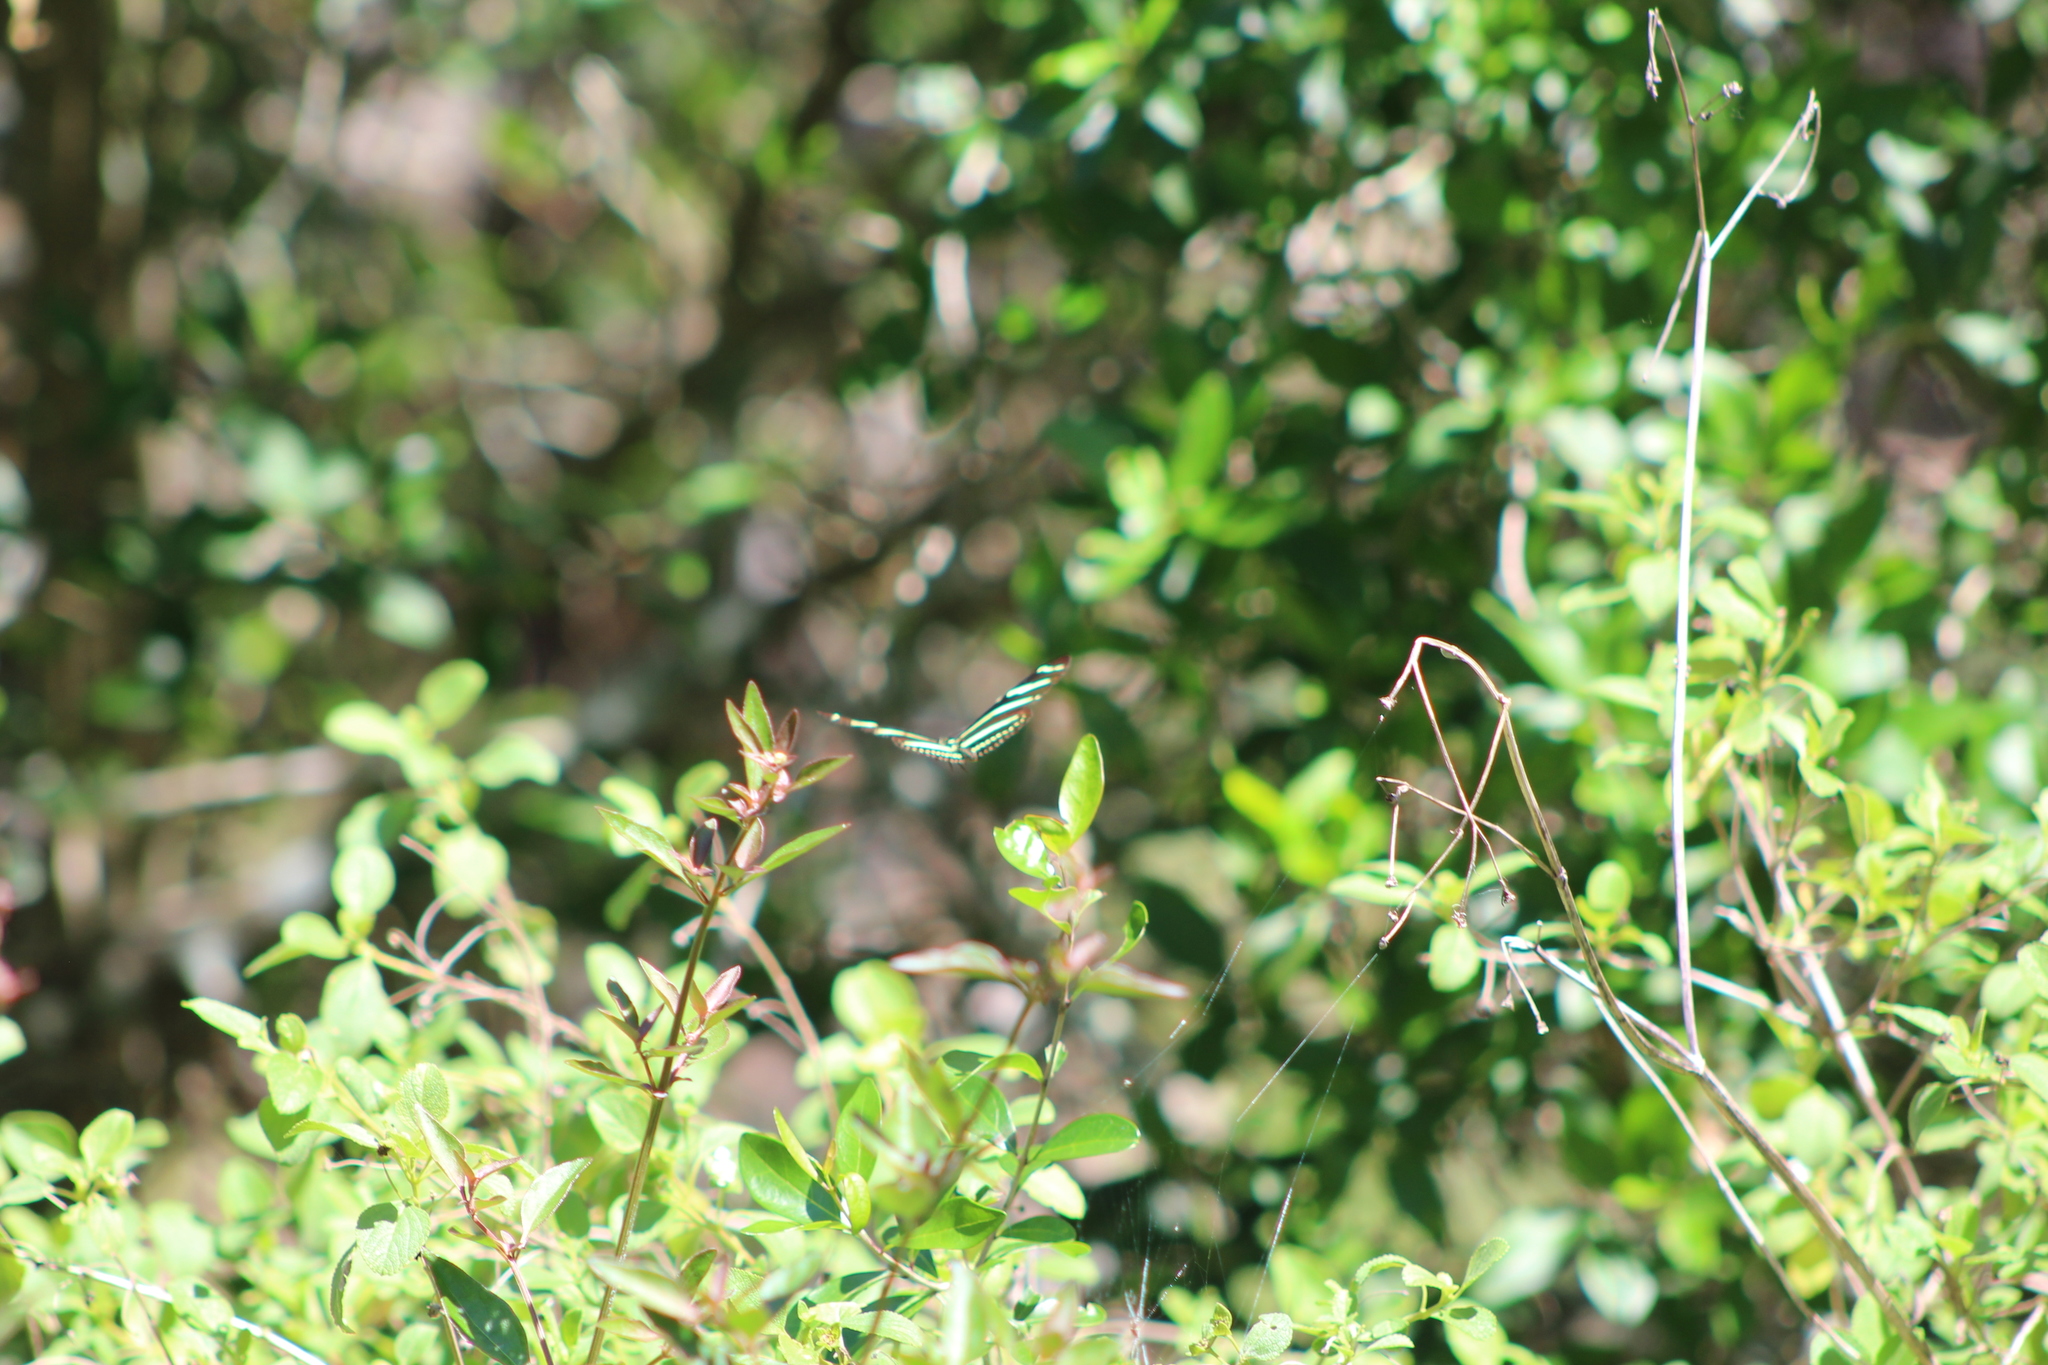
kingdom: Animalia
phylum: Arthropoda
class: Insecta
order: Lepidoptera
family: Nymphalidae
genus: Heliconius
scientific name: Heliconius charithonia
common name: Zebra long wing
